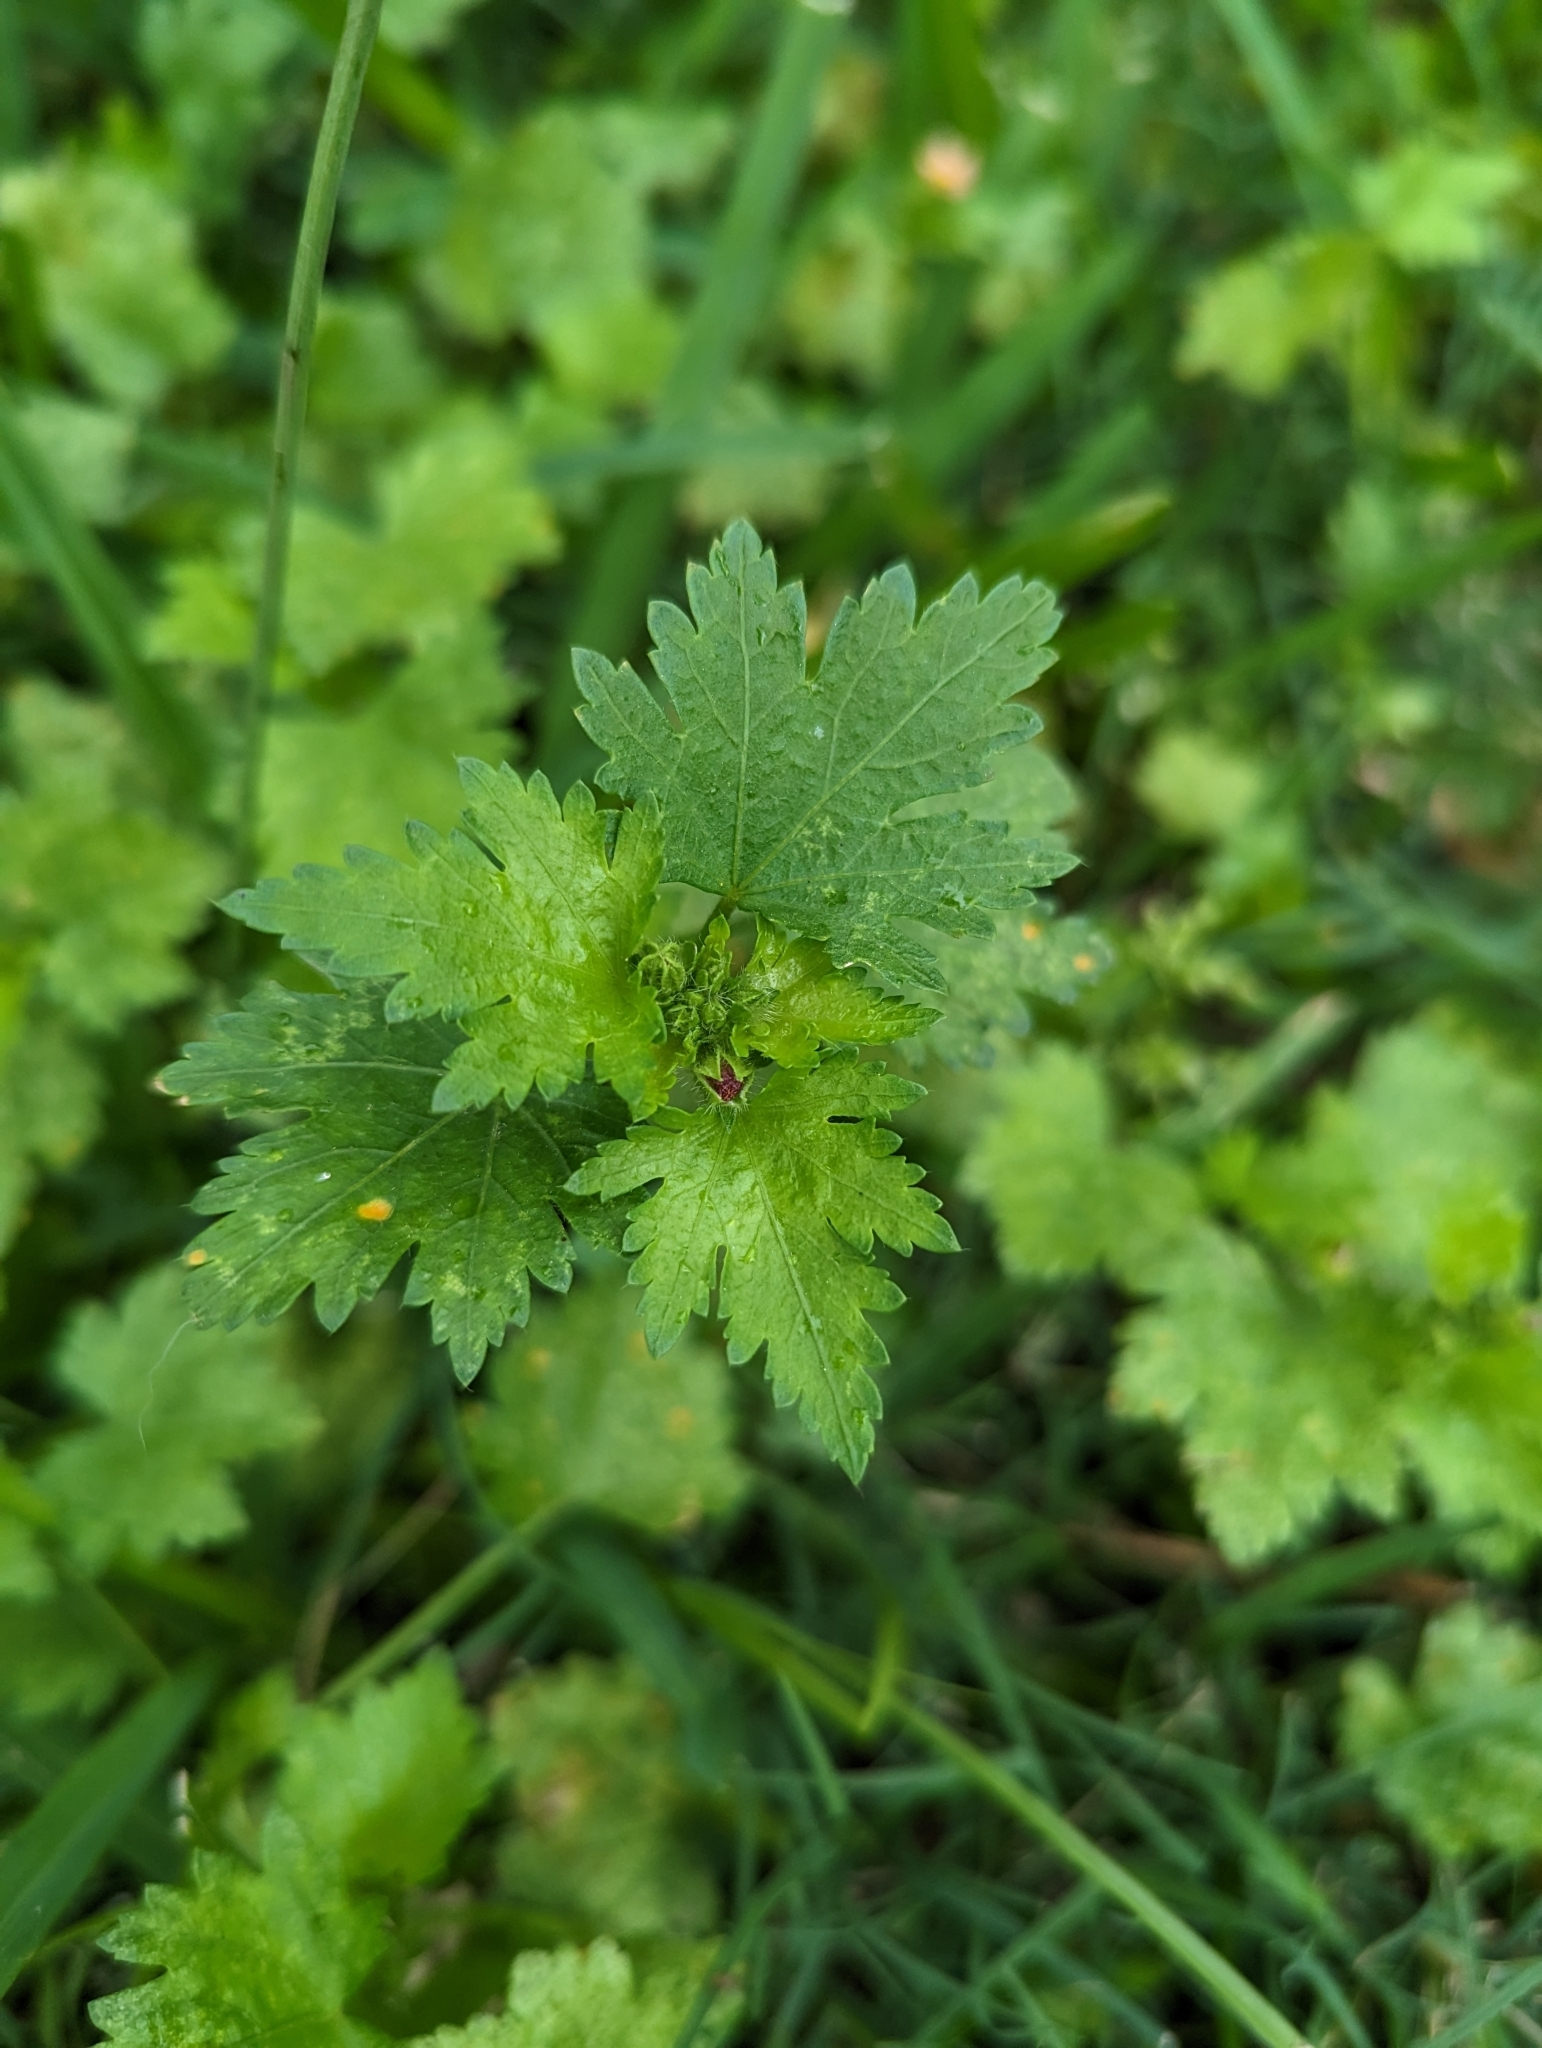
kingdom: Plantae
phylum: Tracheophyta
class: Magnoliopsida
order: Malvales
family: Malvaceae
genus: Modiola
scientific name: Modiola caroliniana
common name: Carolina bristlemallow
